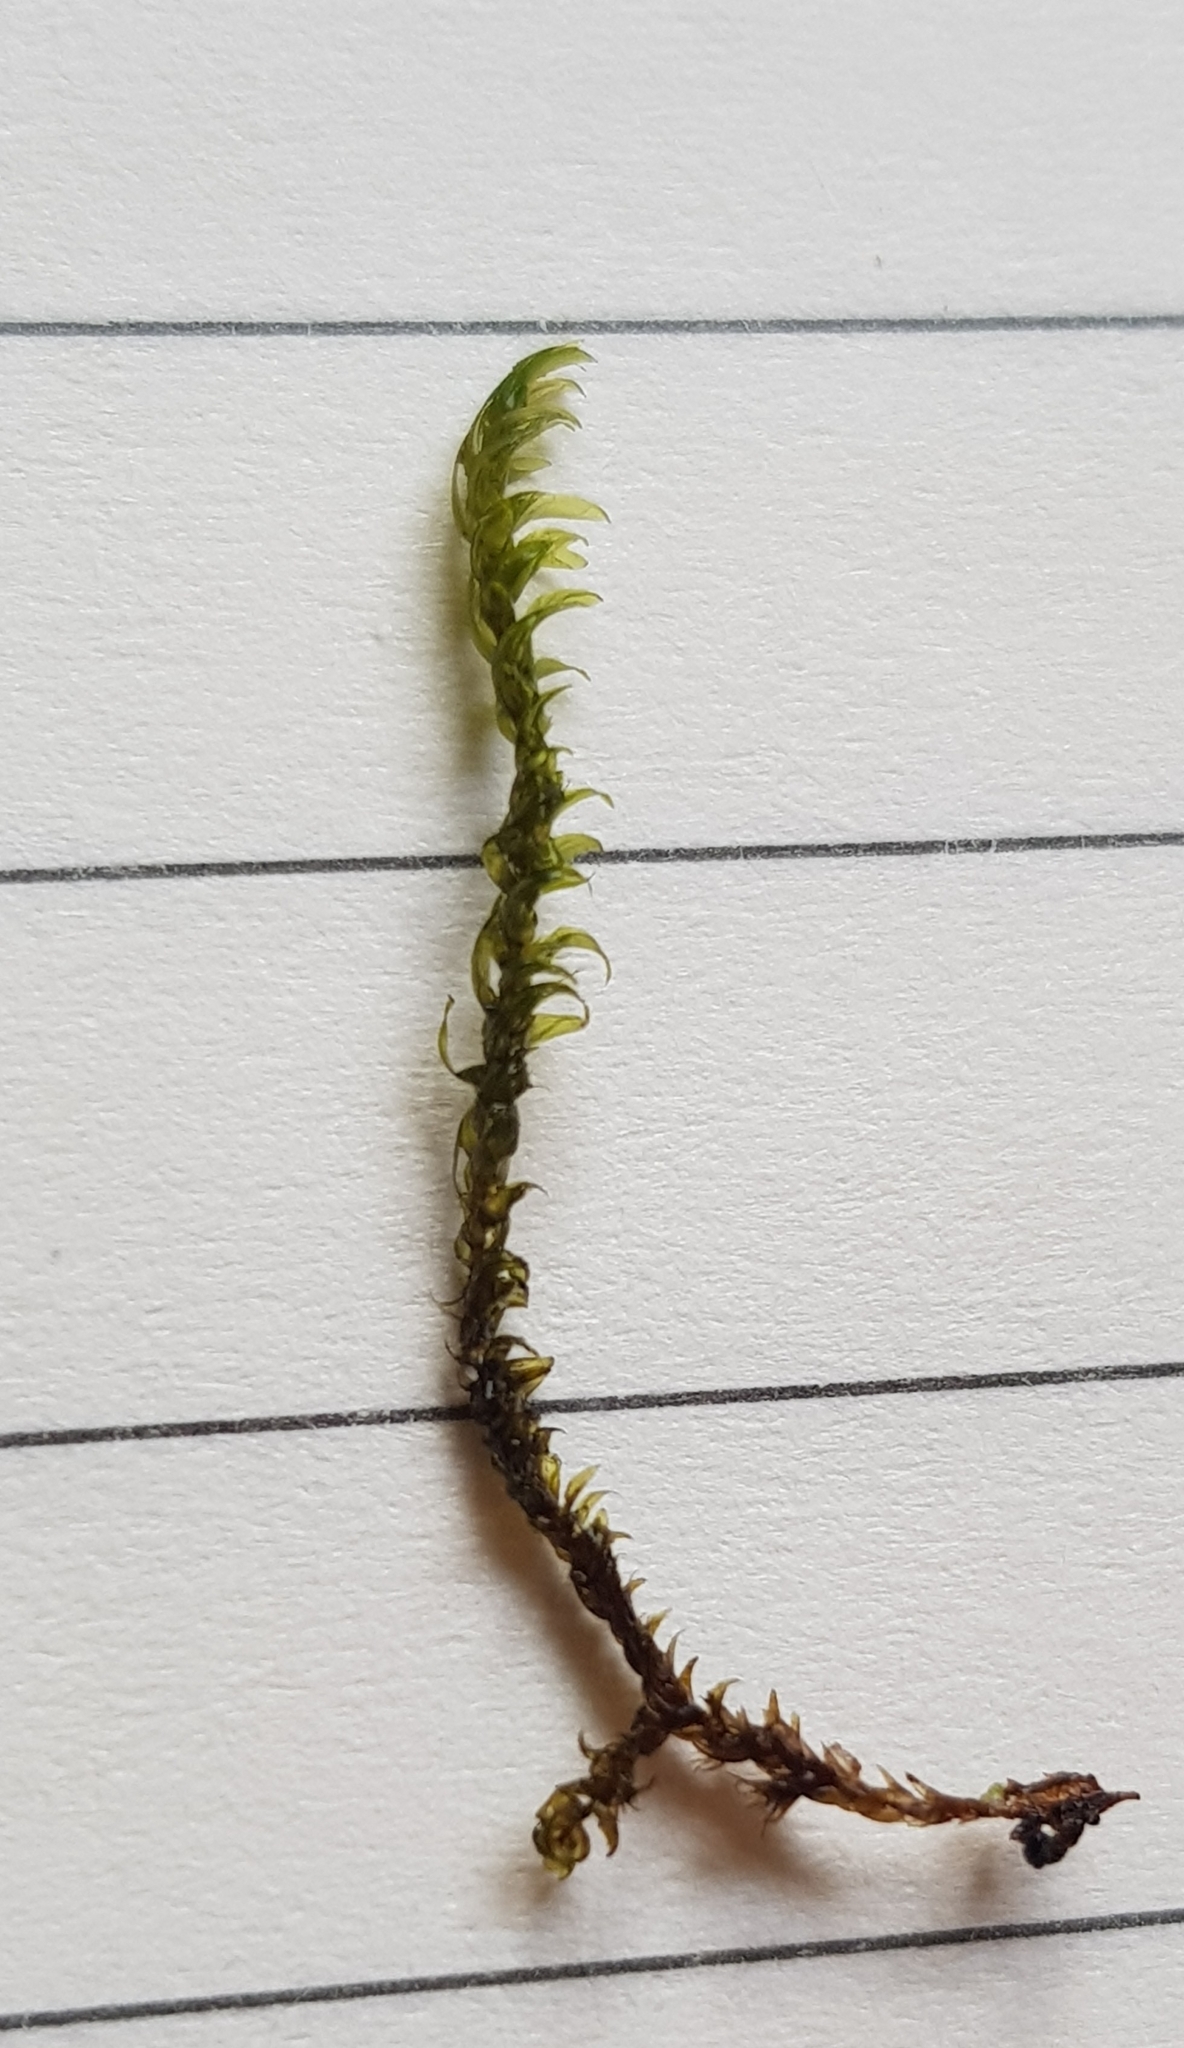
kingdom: Plantae
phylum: Bryophyta
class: Bryopsida
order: Hypnales
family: Scorpidiaceae
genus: Hygrohypnella
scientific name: Hygrohypnella ochracea
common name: Hygrohypnum moss
